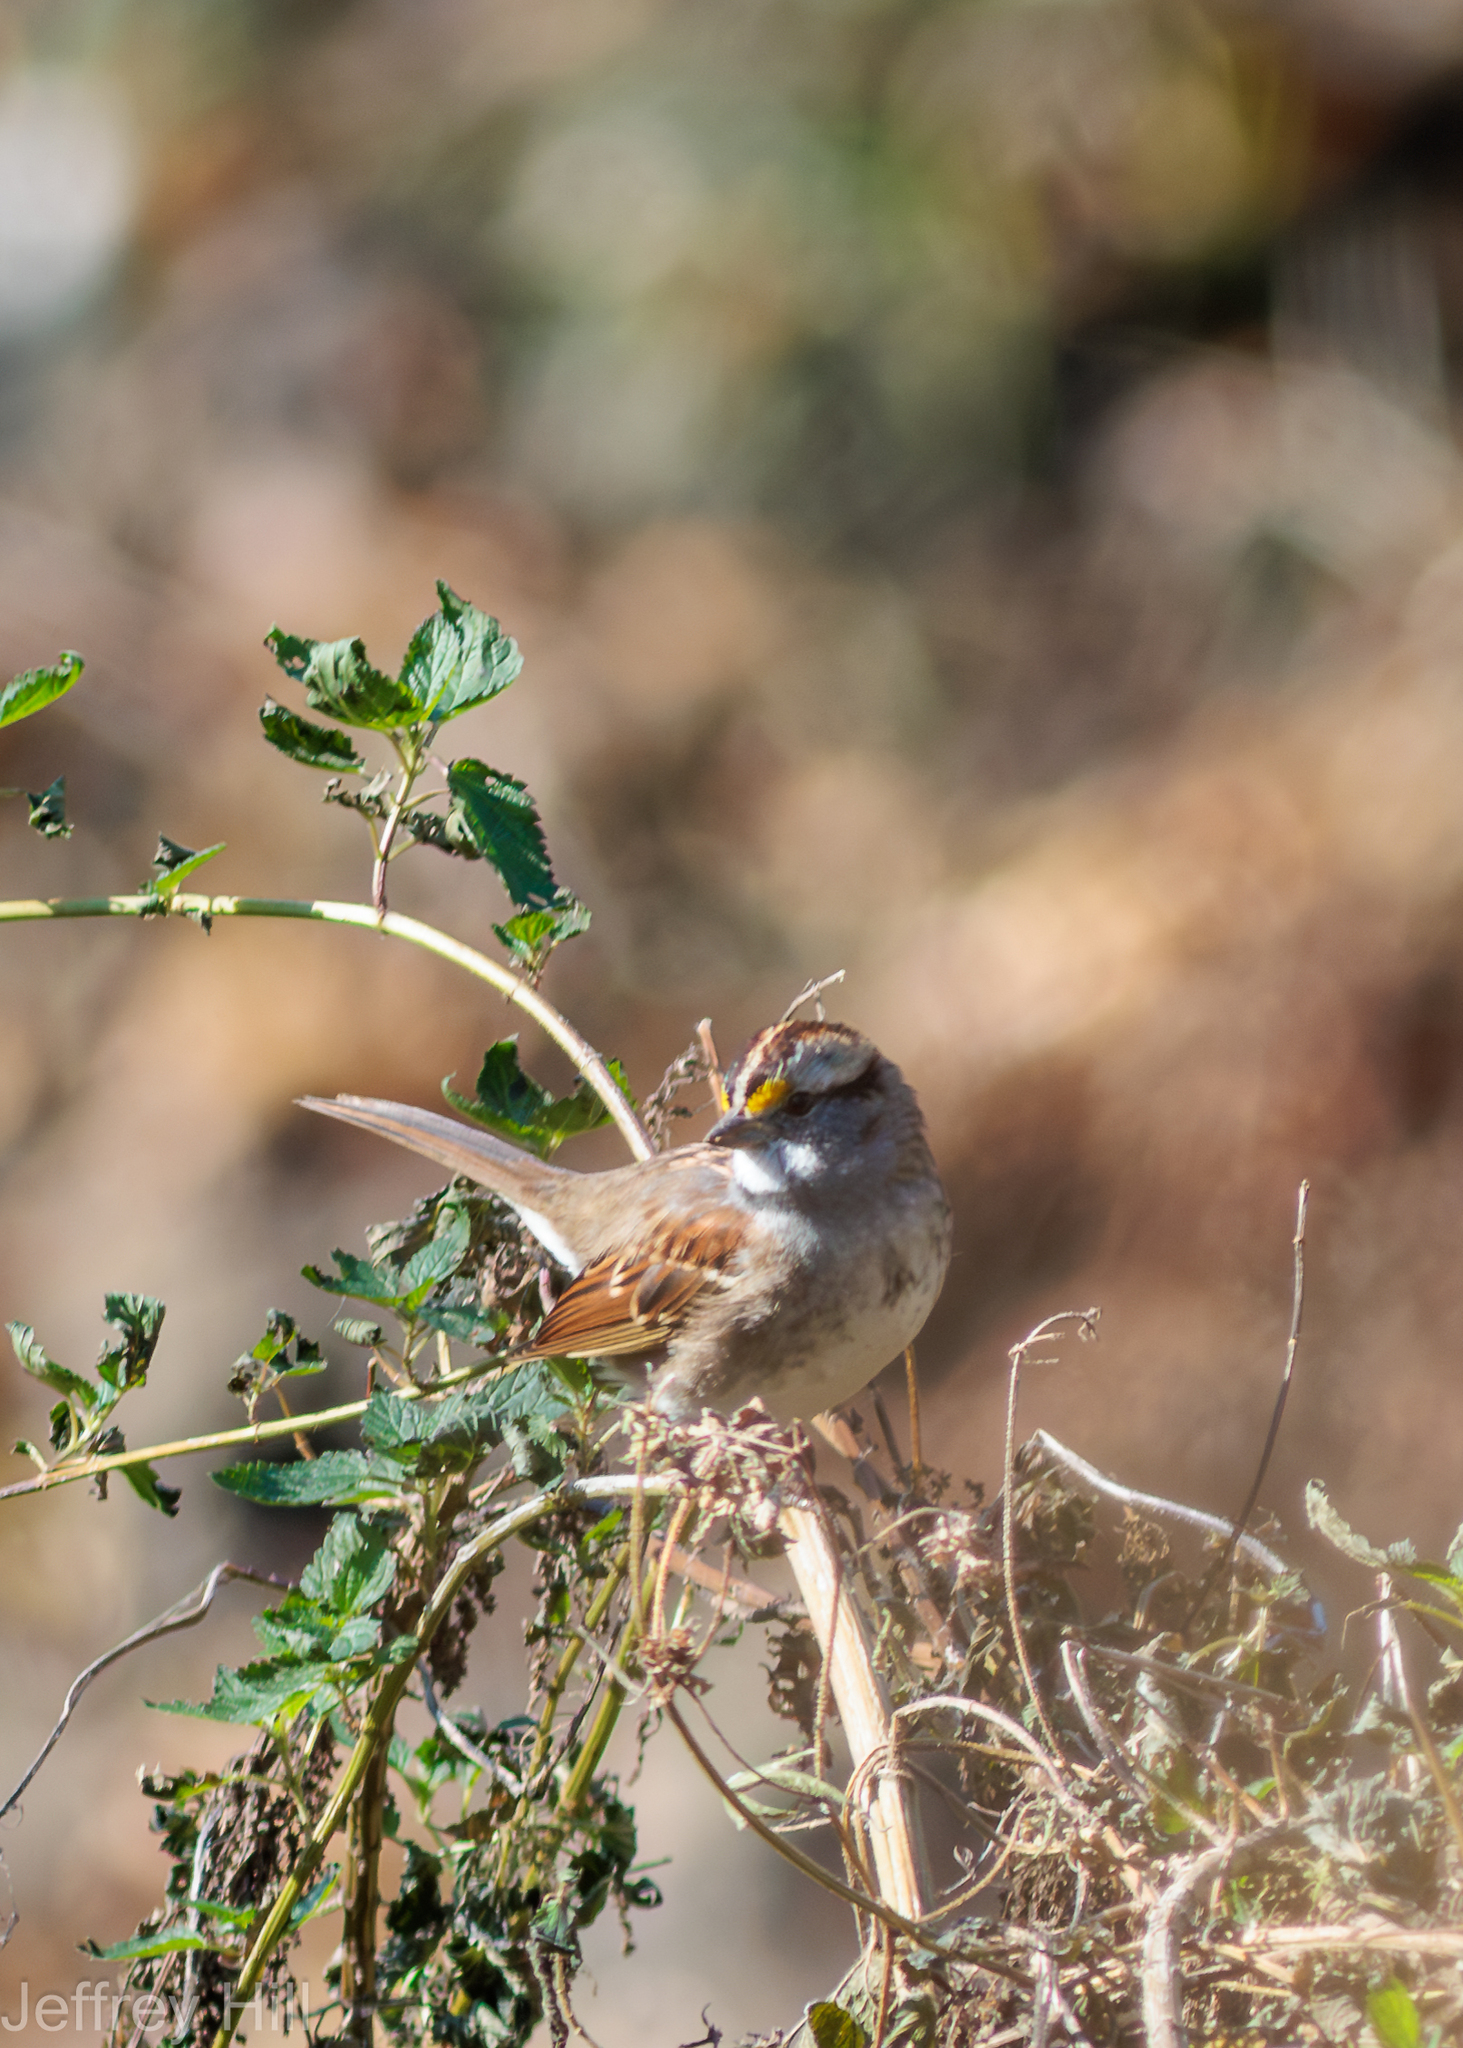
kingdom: Animalia
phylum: Chordata
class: Aves
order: Passeriformes
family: Passerellidae
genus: Zonotrichia
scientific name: Zonotrichia albicollis
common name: White-throated sparrow
